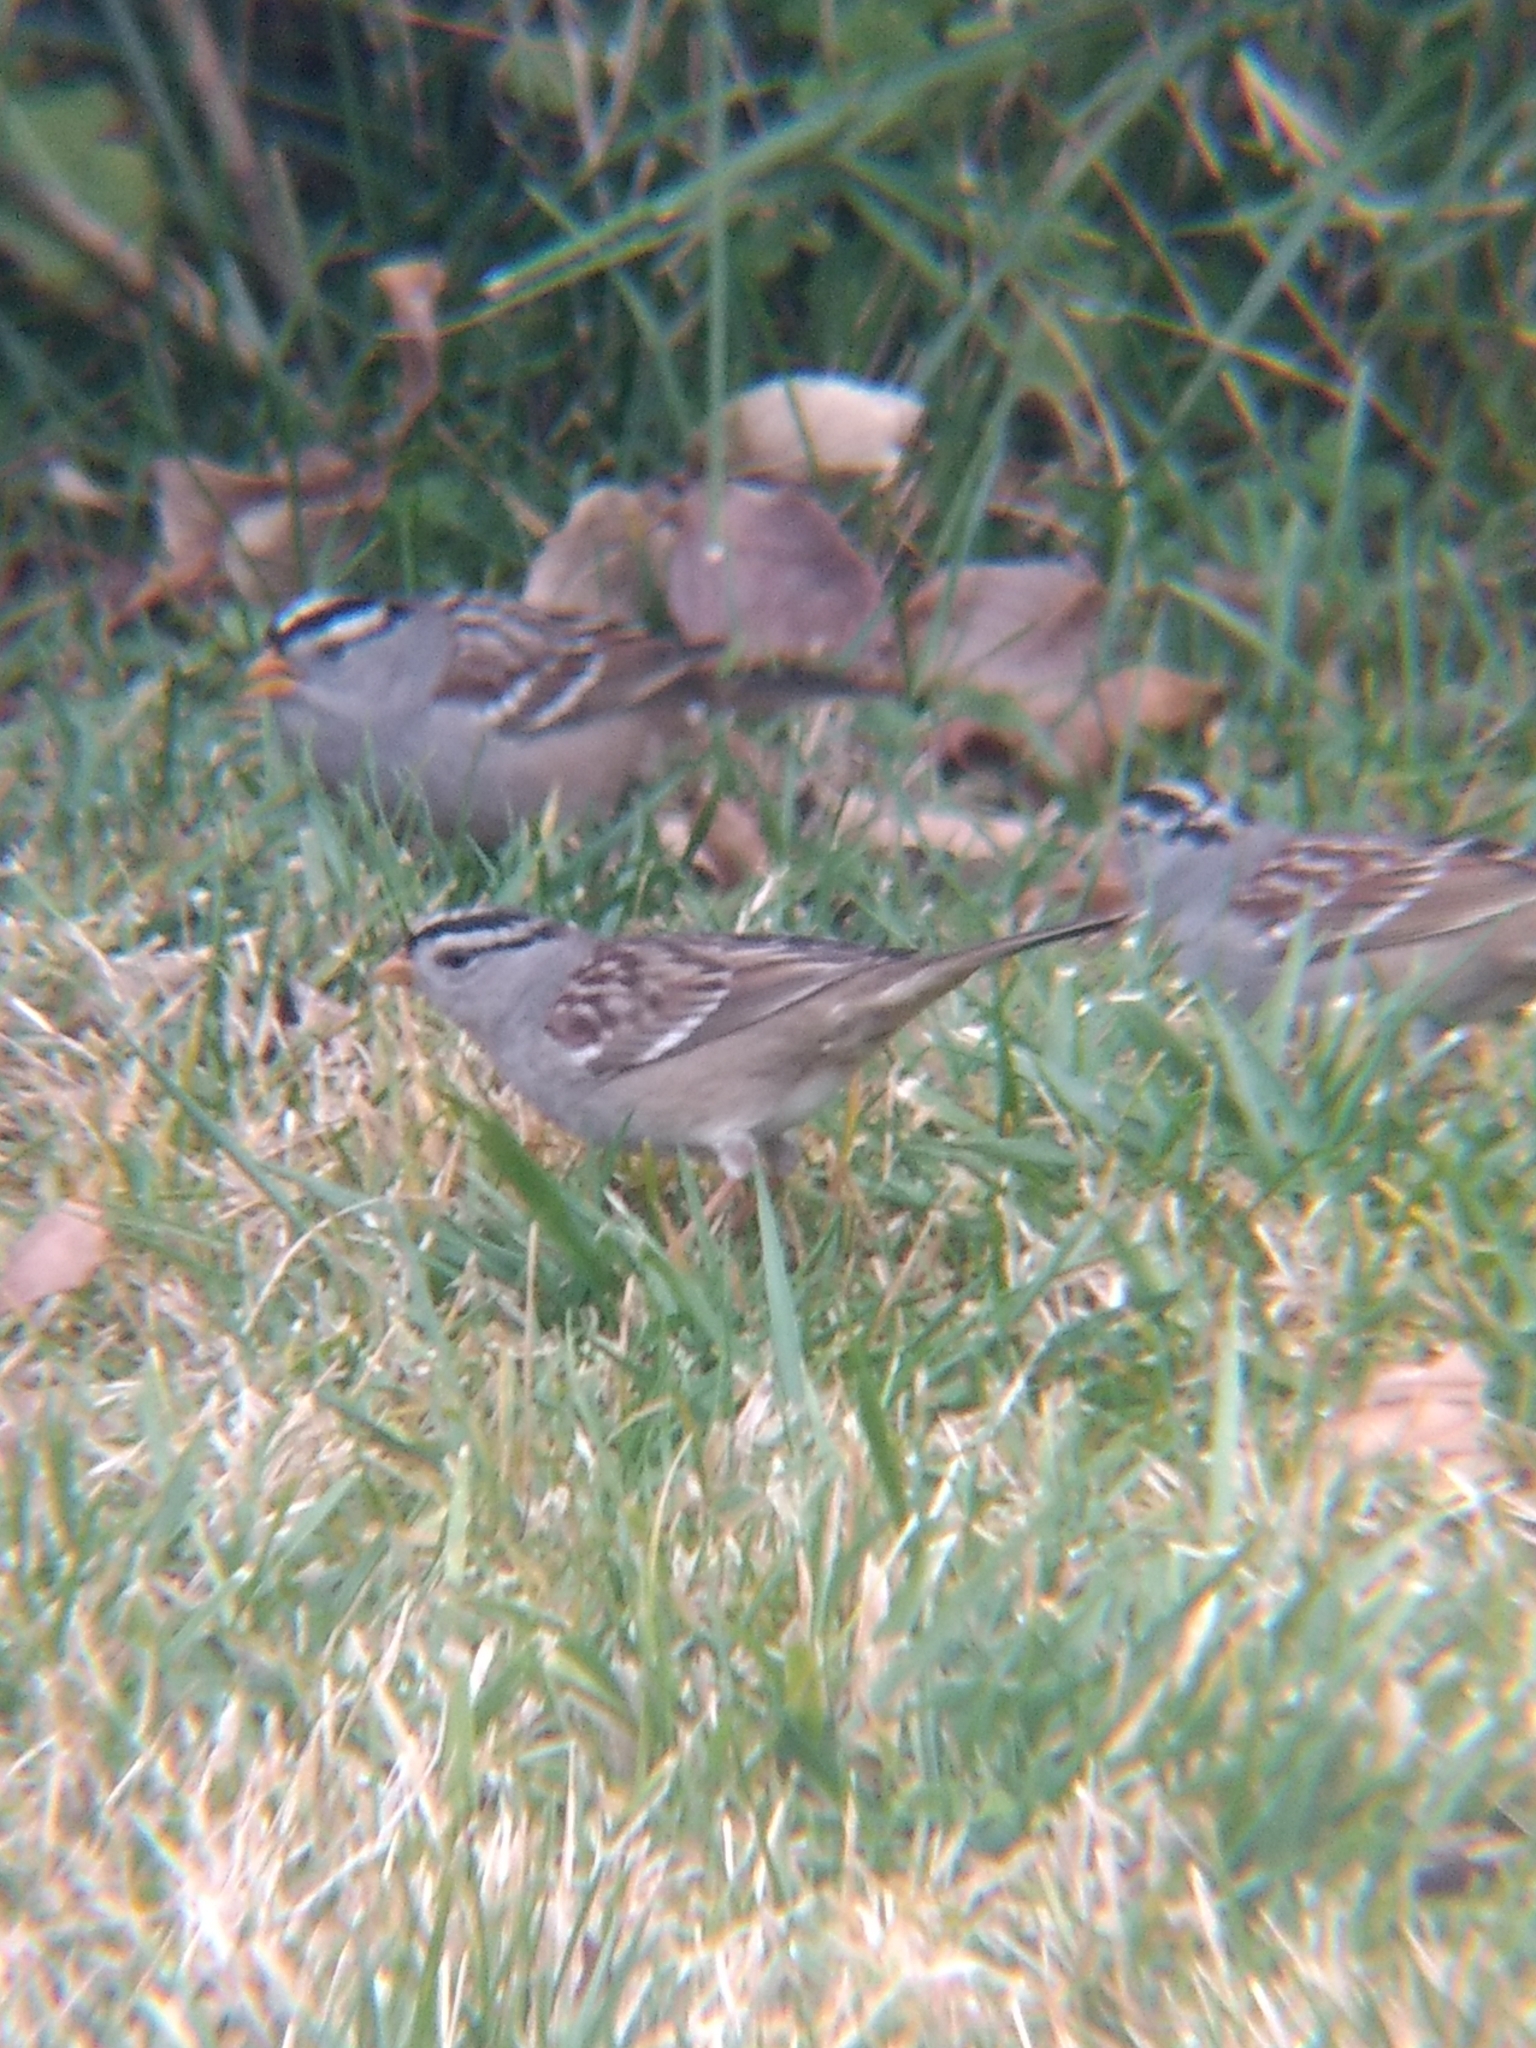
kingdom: Animalia
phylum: Chordata
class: Aves
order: Passeriformes
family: Passerellidae
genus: Zonotrichia
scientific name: Zonotrichia leucophrys
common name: White-crowned sparrow
